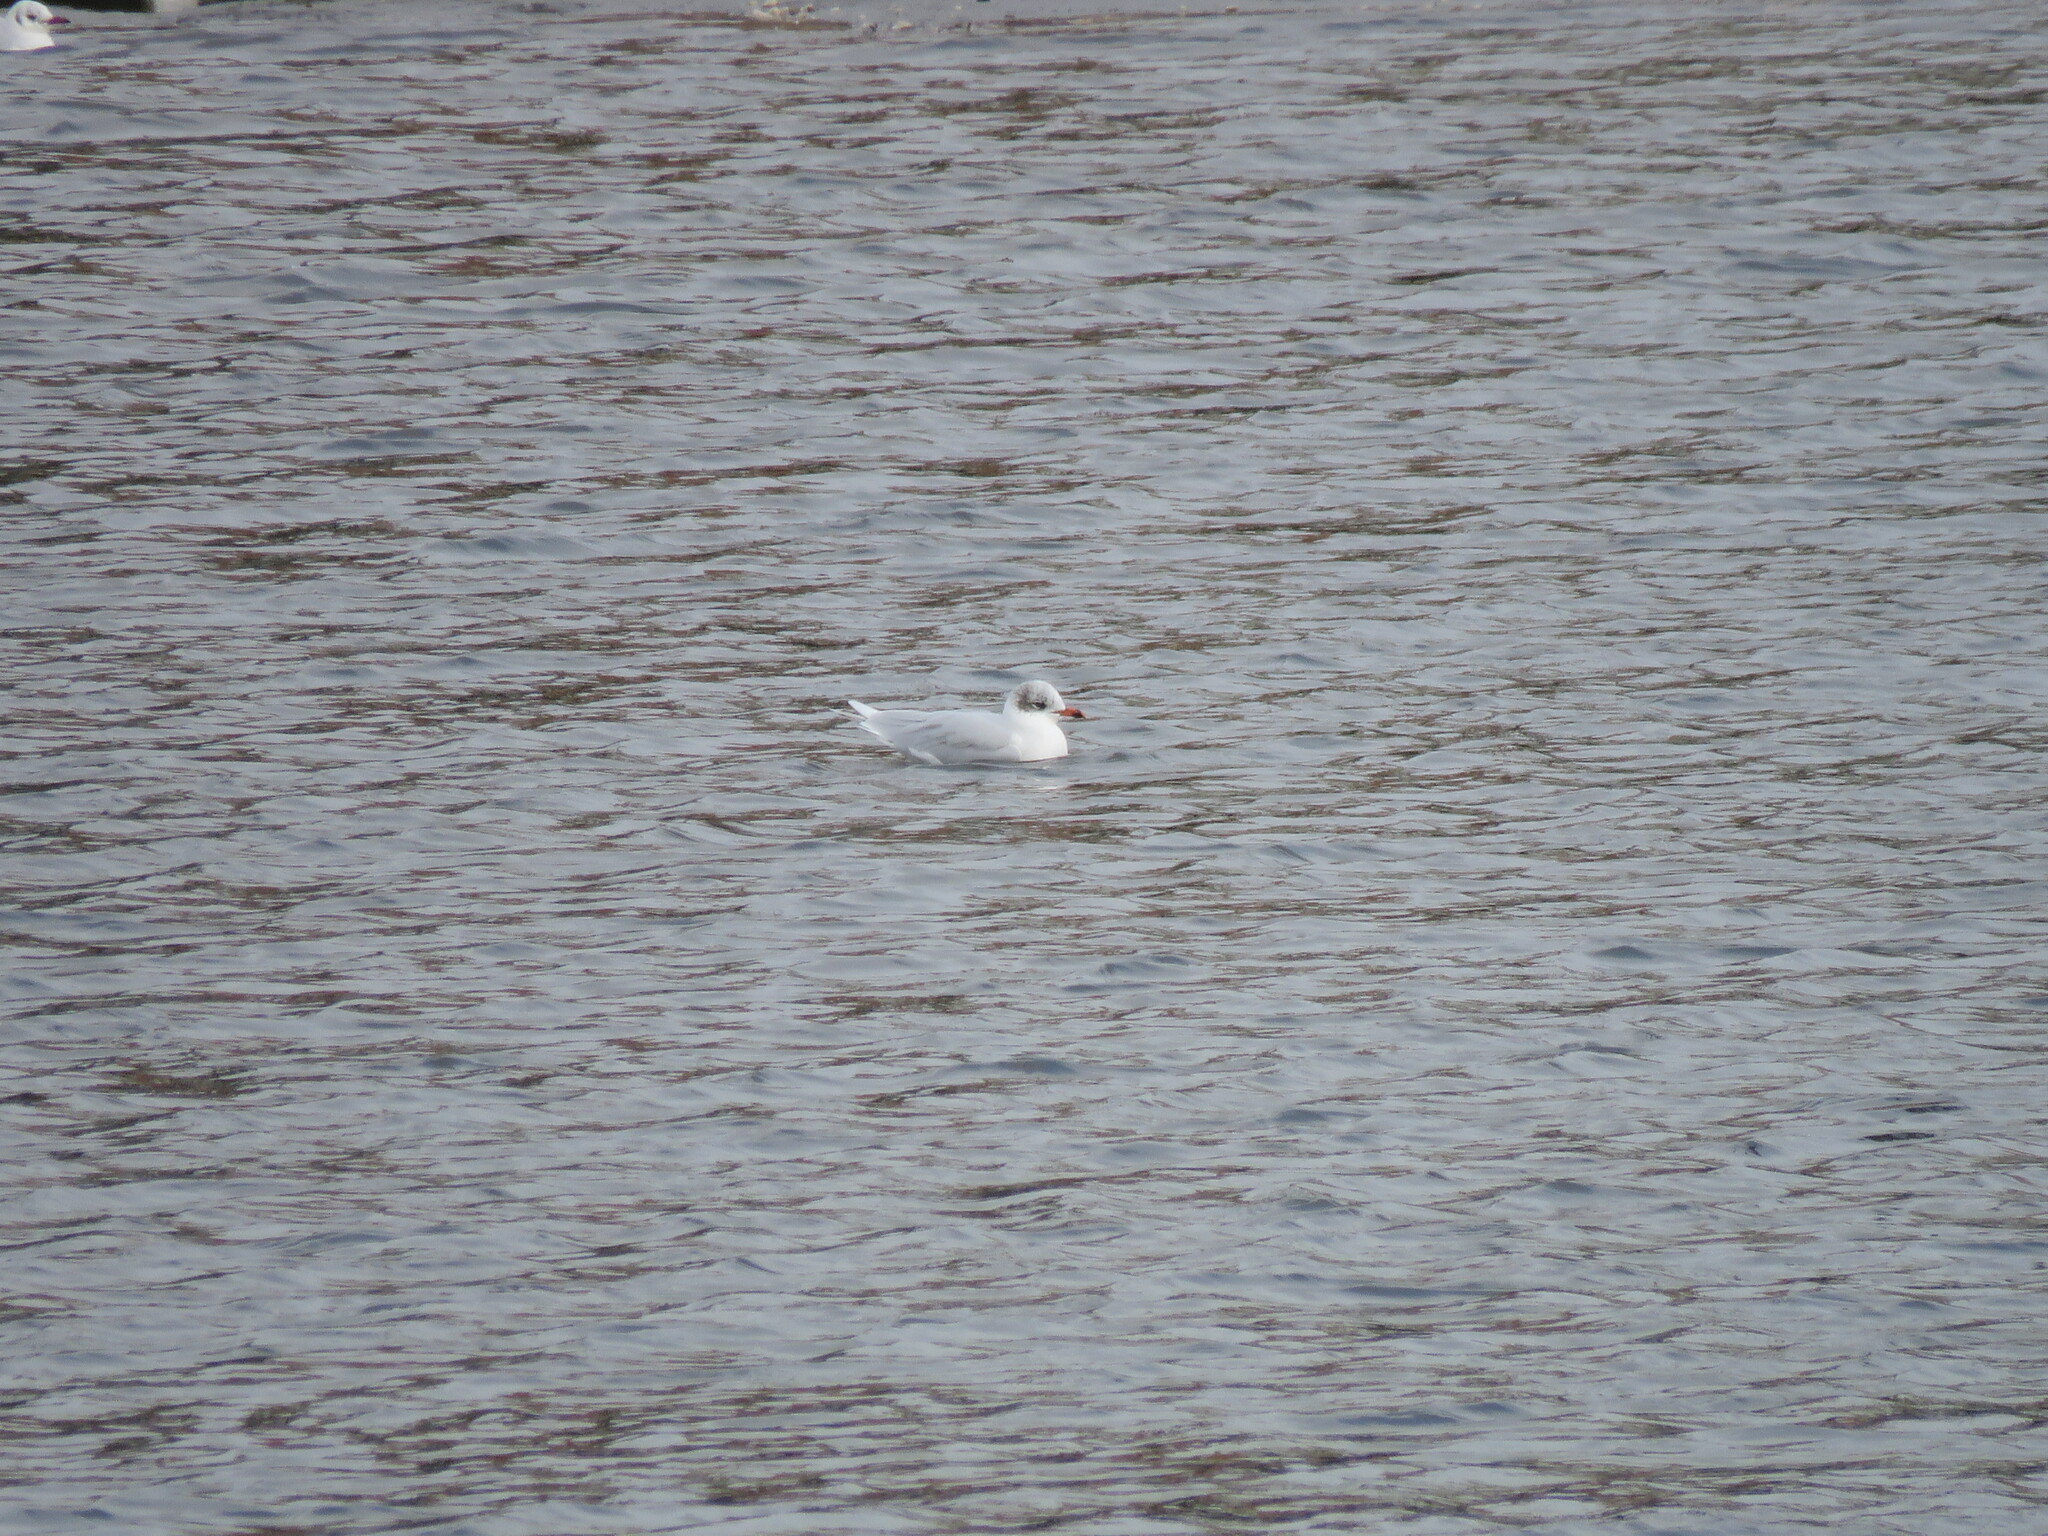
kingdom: Animalia
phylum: Chordata
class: Aves
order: Charadriiformes
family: Laridae
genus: Ichthyaetus
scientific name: Ichthyaetus melanocephalus
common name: Mediterranean gull
